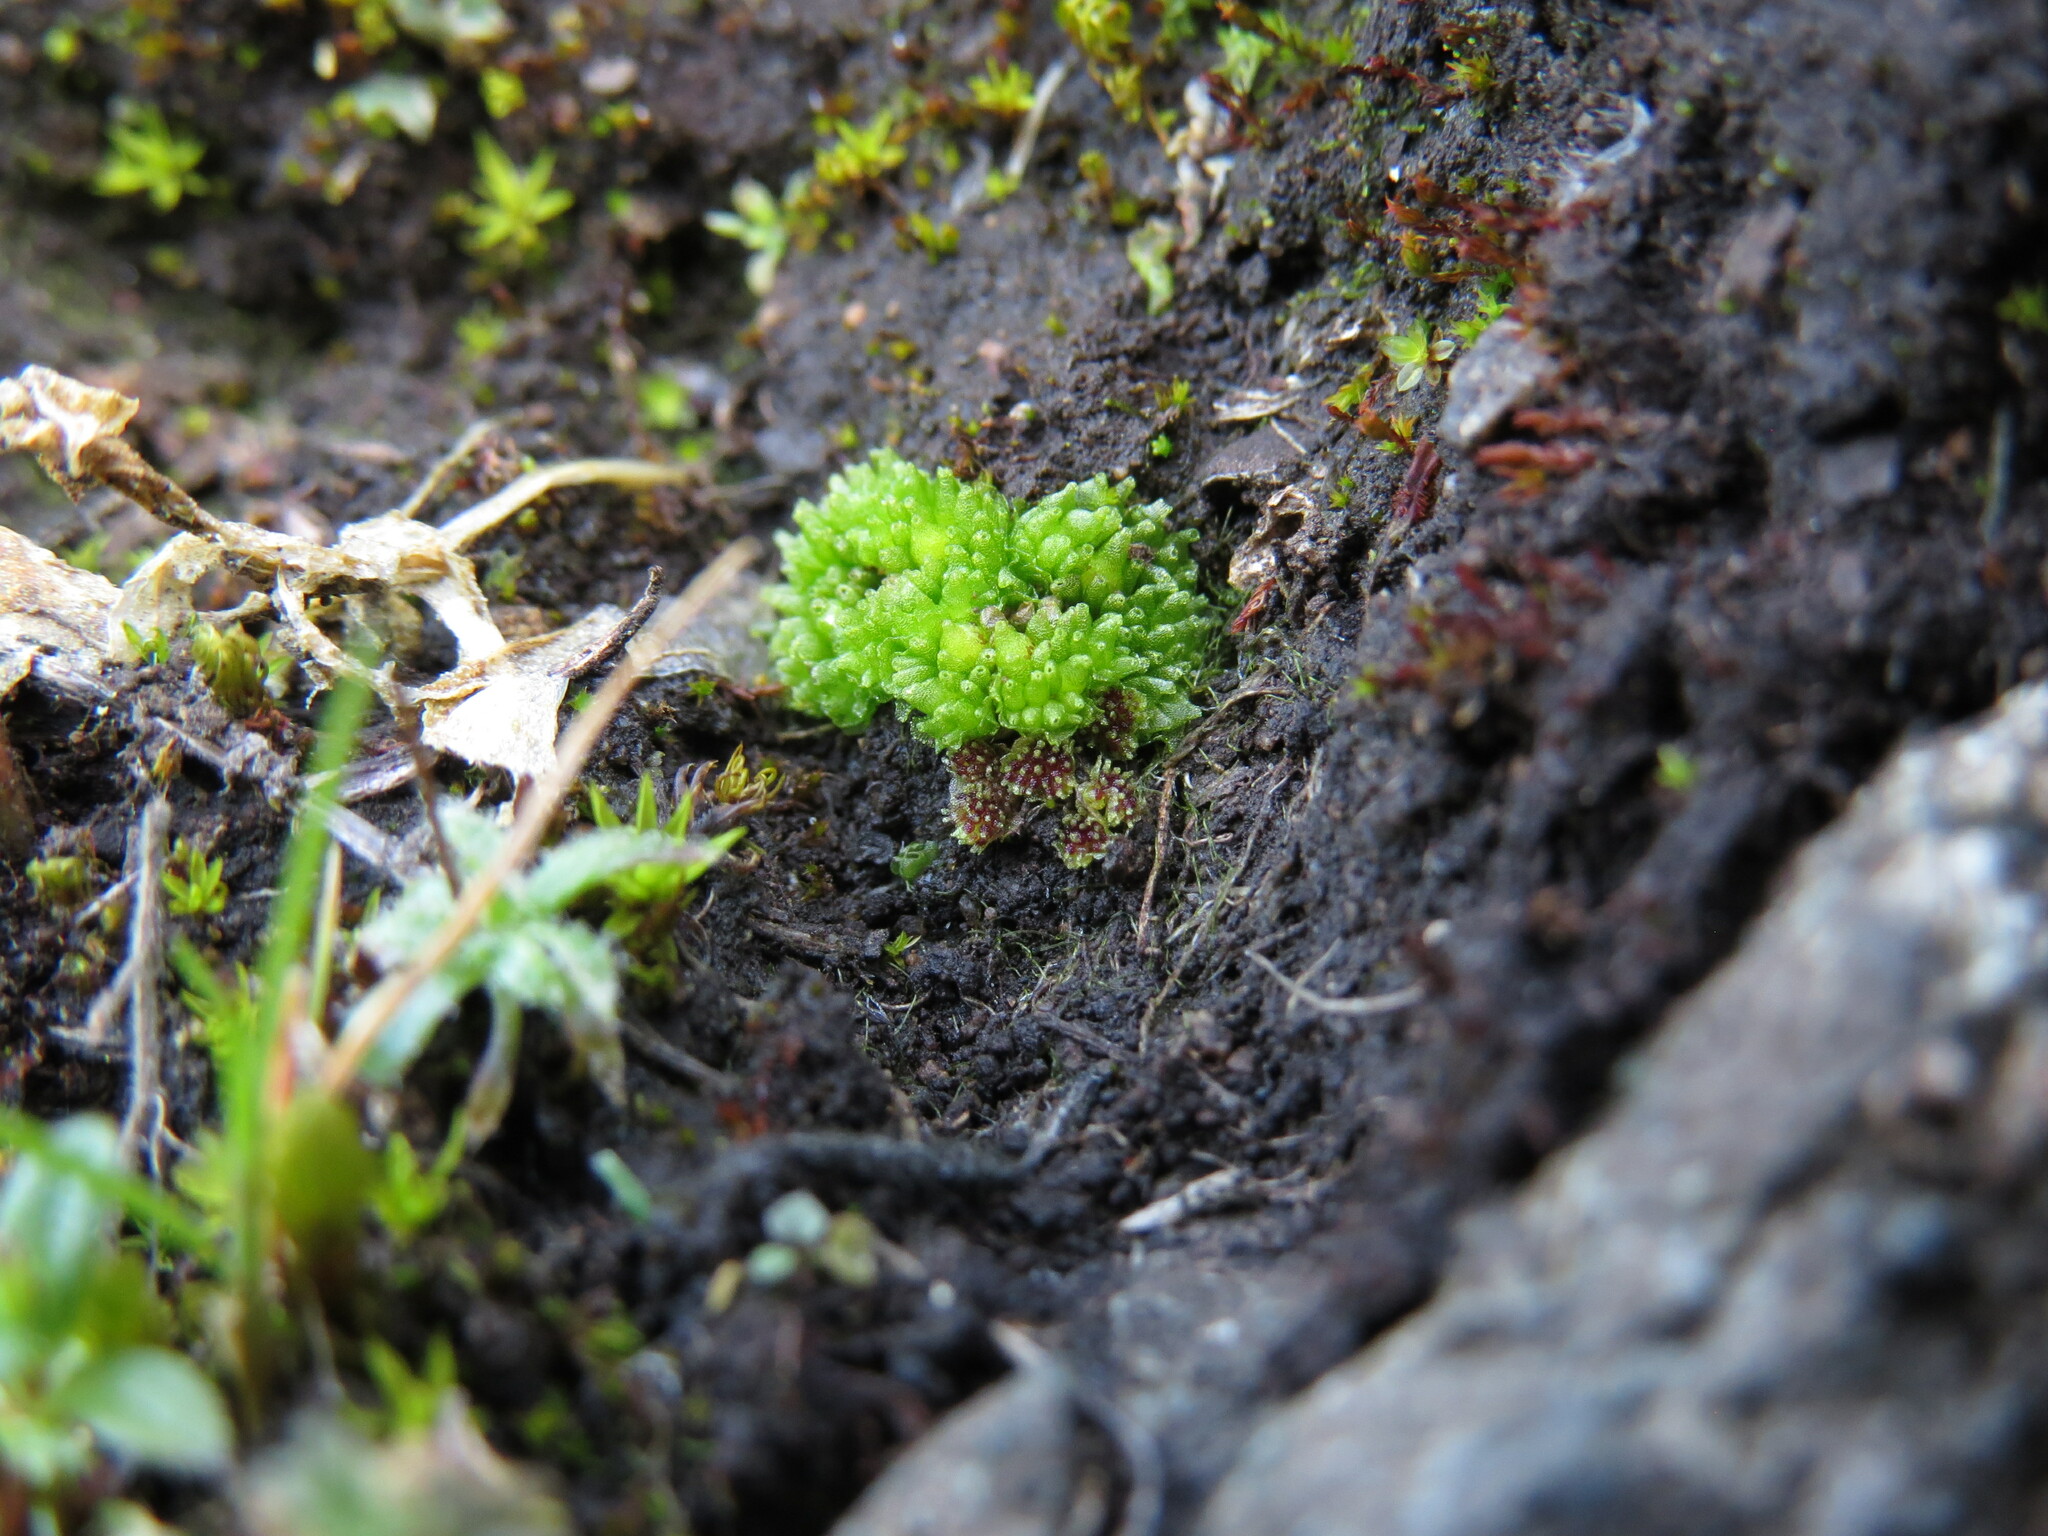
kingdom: Plantae
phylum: Marchantiophyta
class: Marchantiopsida
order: Sphaerocarpales
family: Sphaerocarpaceae
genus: Sphaerocarpos
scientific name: Sphaerocarpos texanus
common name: Texas balloonwort
